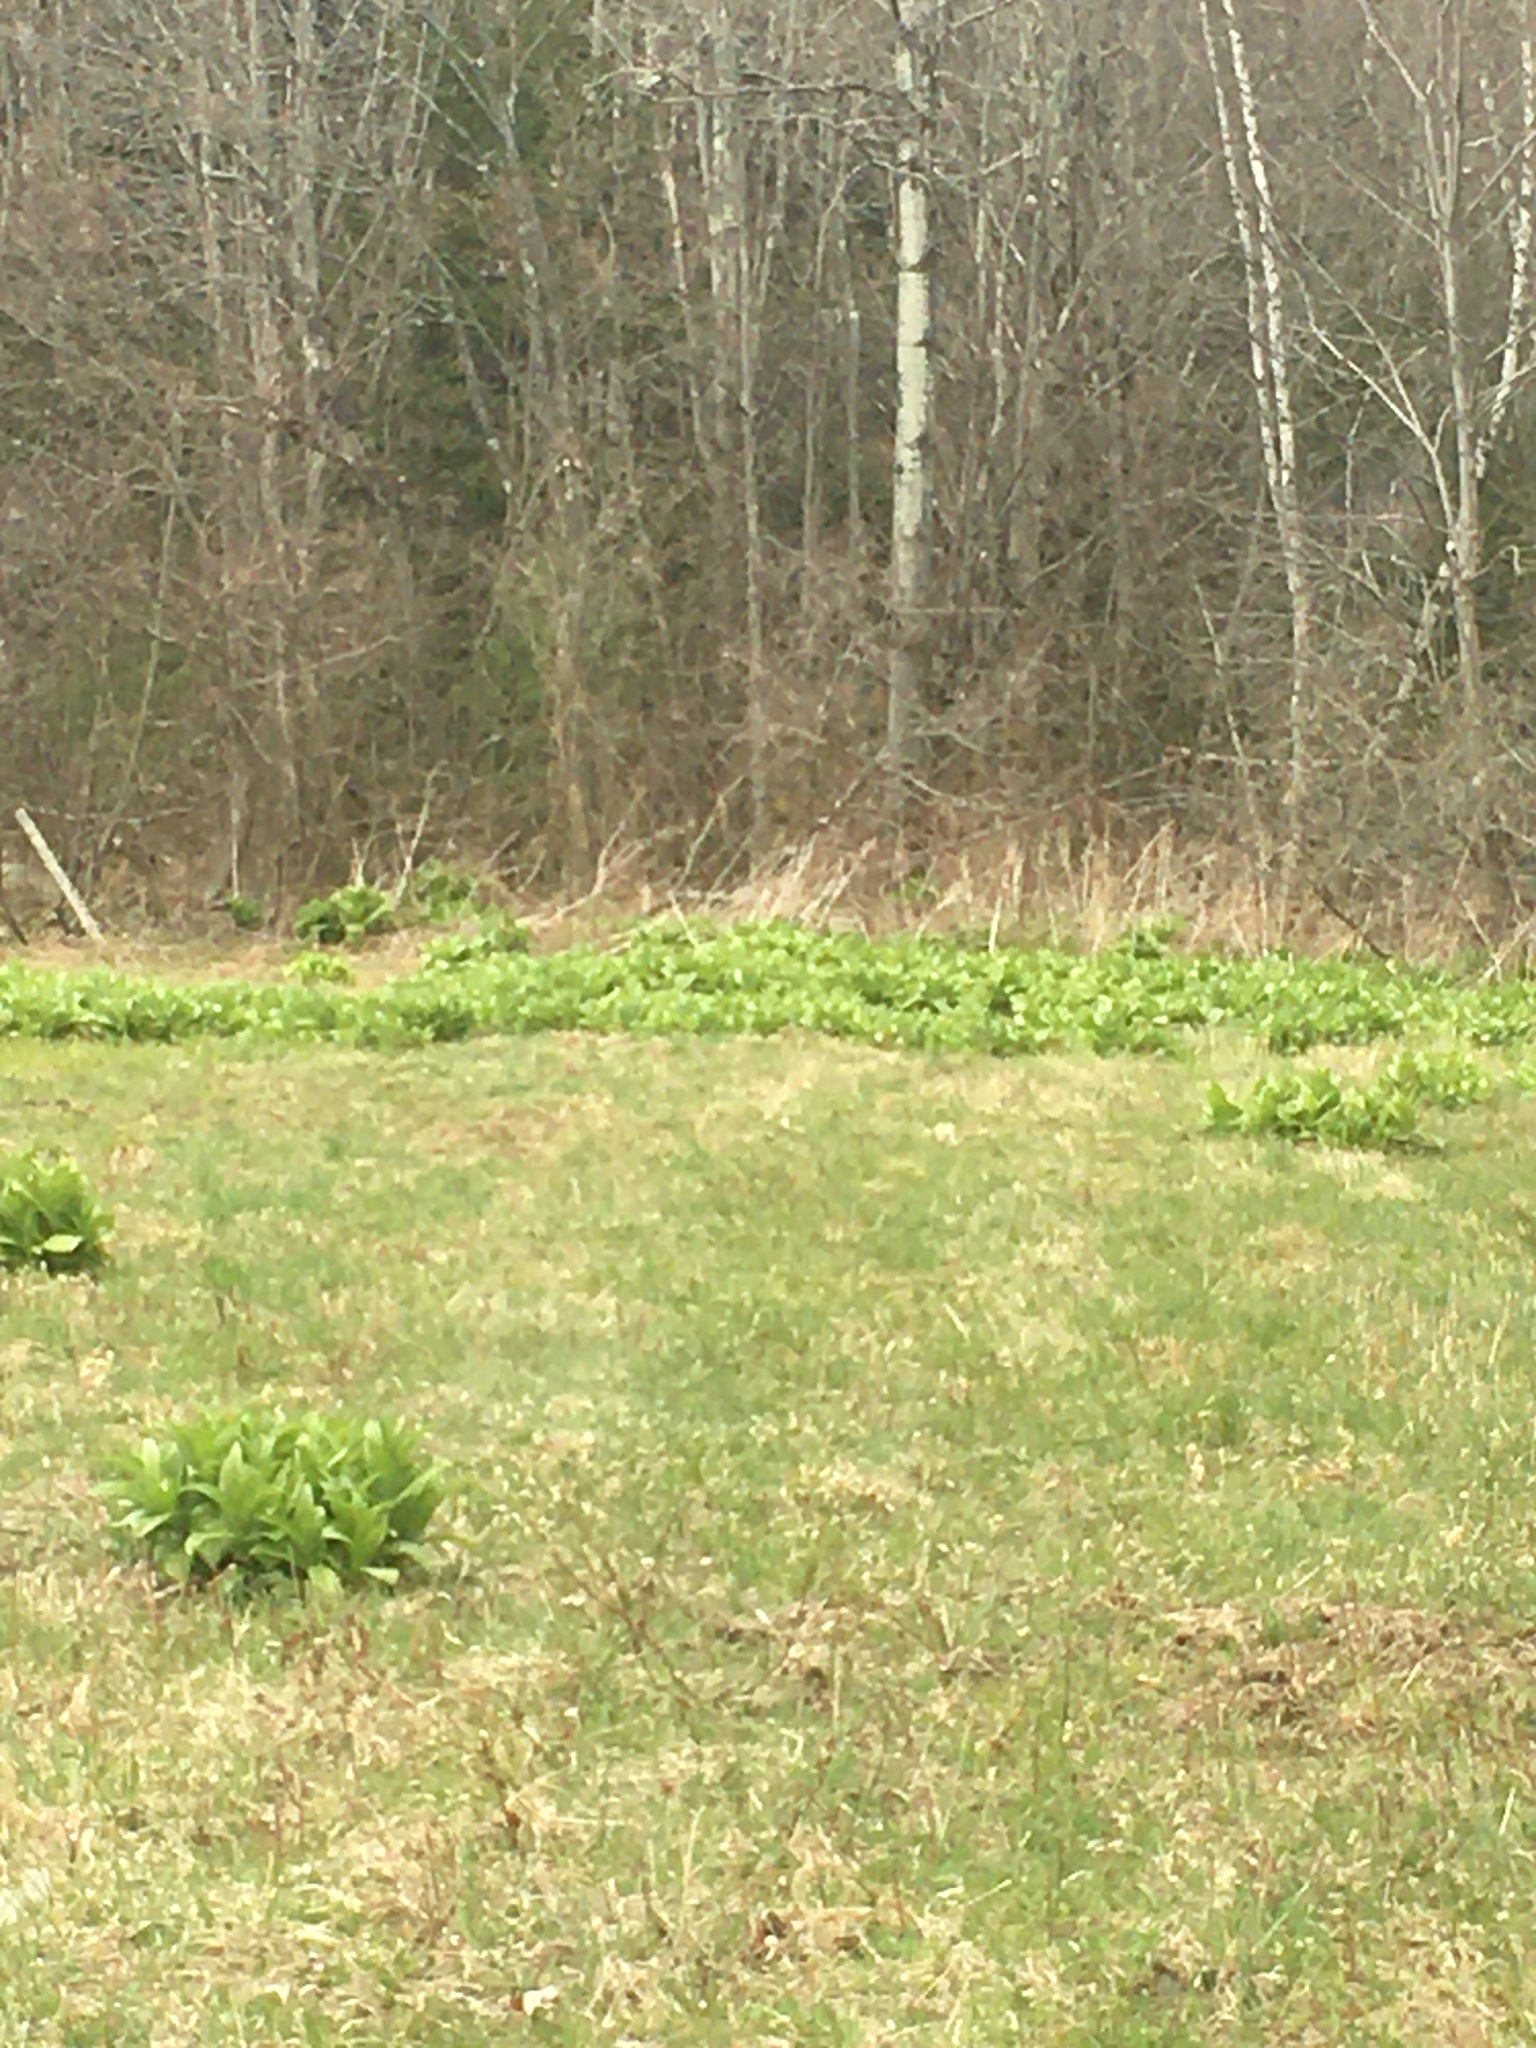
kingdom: Plantae
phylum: Tracheophyta
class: Liliopsida
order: Liliales
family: Melanthiaceae
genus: Veratrum
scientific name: Veratrum viride
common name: American false hellebore
